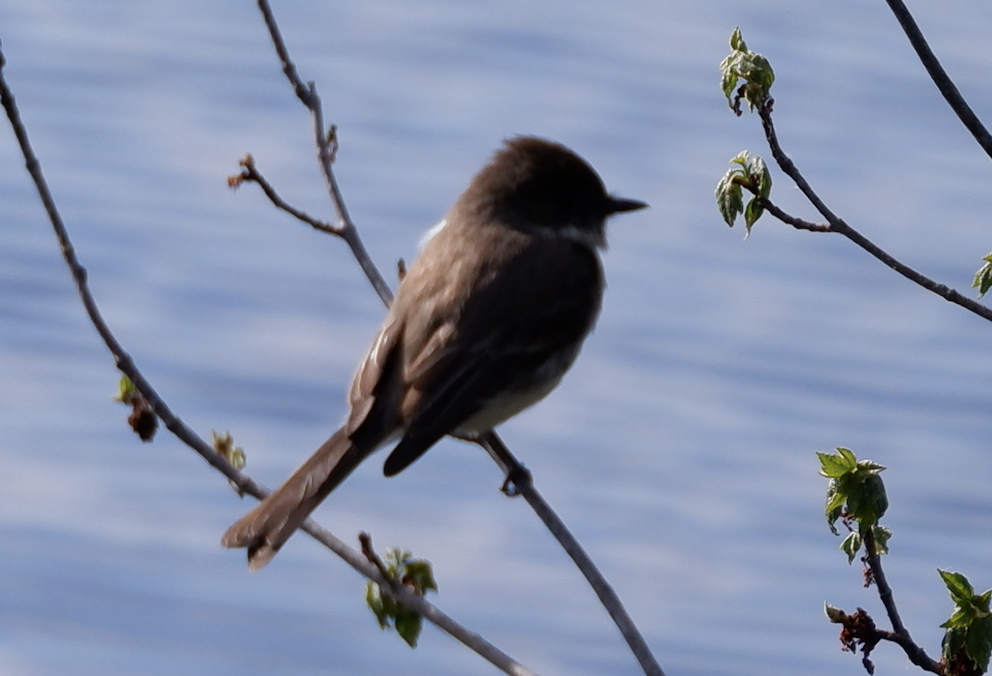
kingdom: Animalia
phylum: Chordata
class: Aves
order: Passeriformes
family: Tyrannidae
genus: Sayornis
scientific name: Sayornis phoebe
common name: Eastern phoebe
